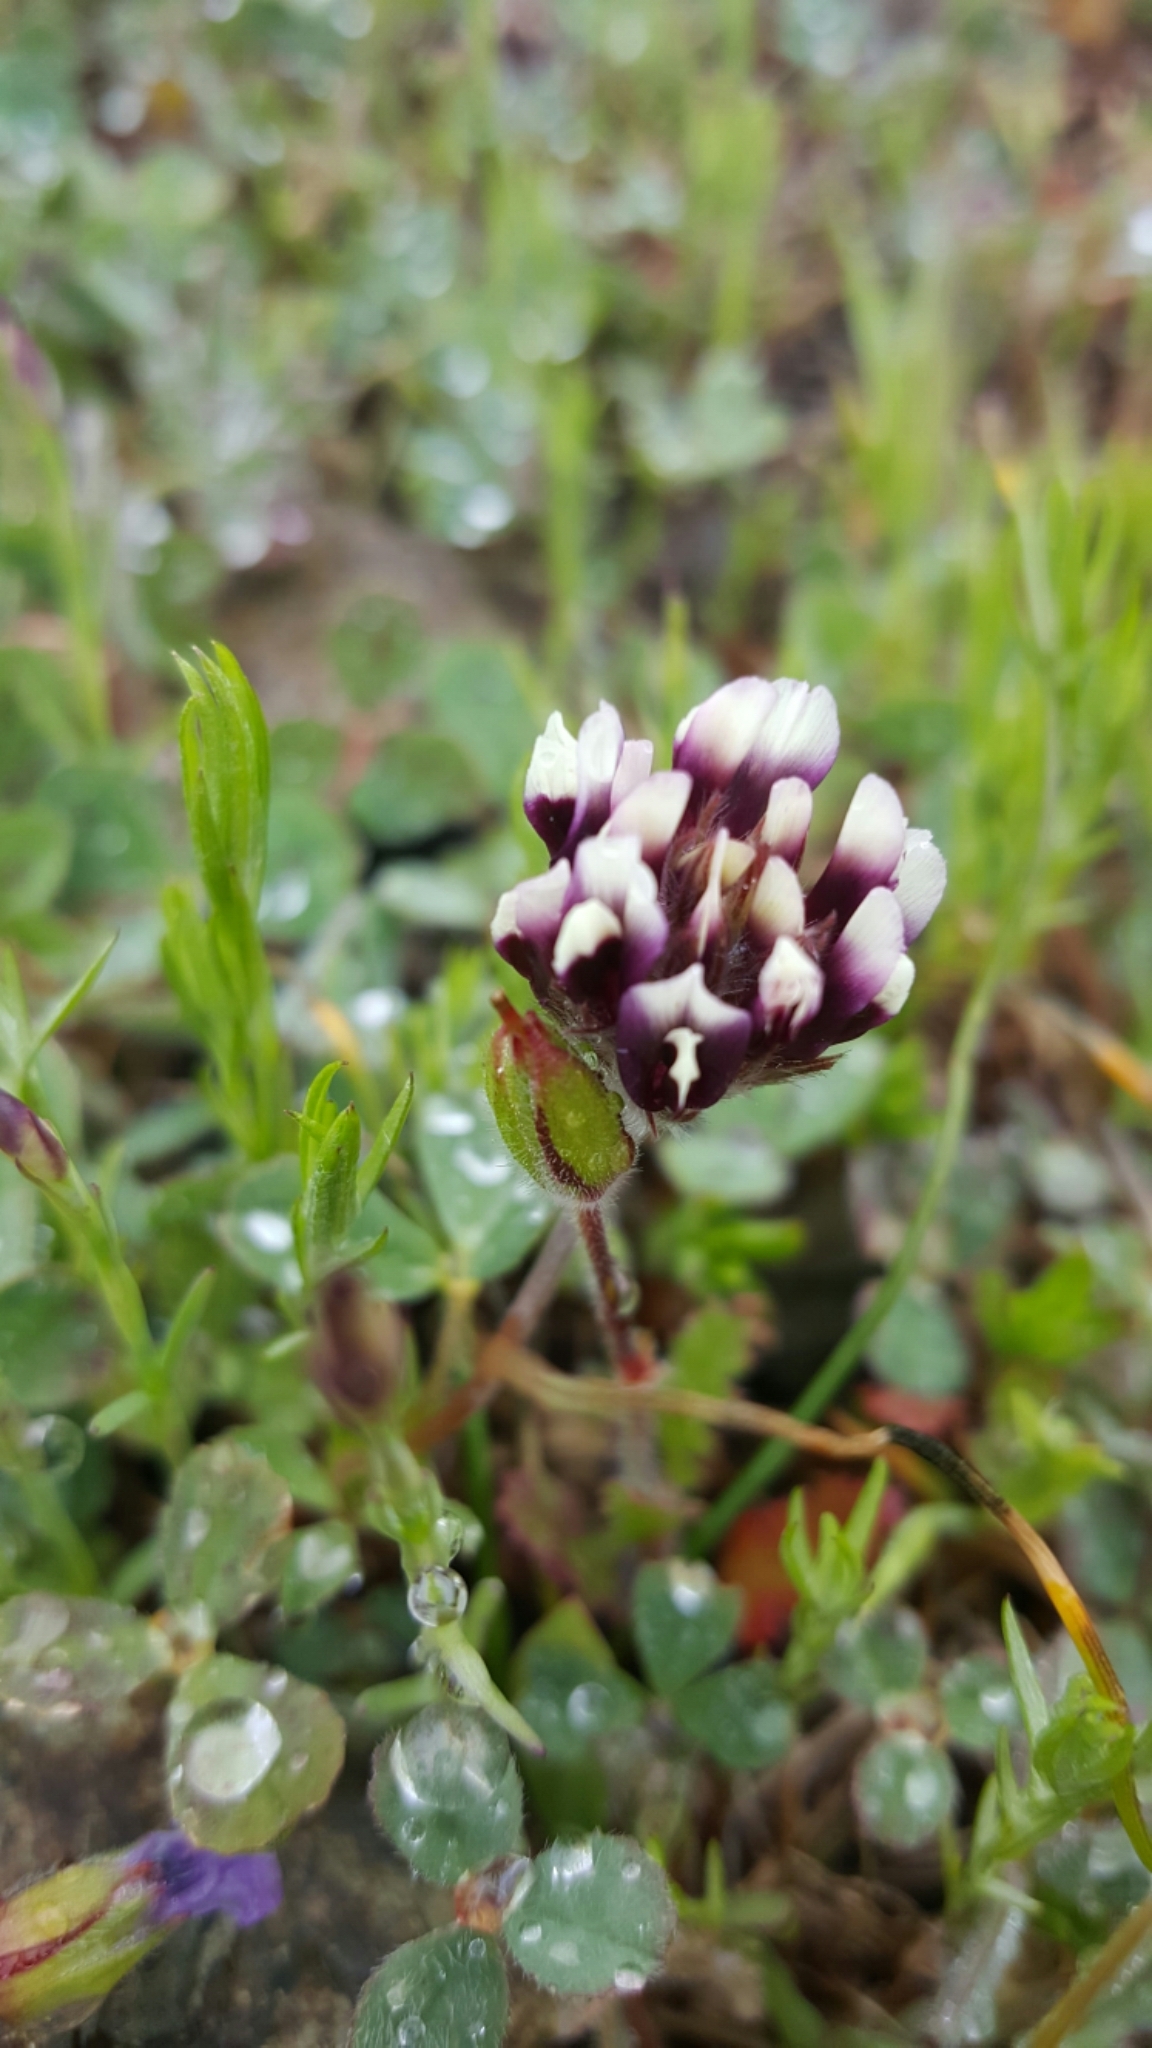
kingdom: Plantae
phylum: Tracheophyta
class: Magnoliopsida
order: Fabales
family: Fabaceae
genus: Trifolium
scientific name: Trifolium dichotomum
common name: Branched indian clover
